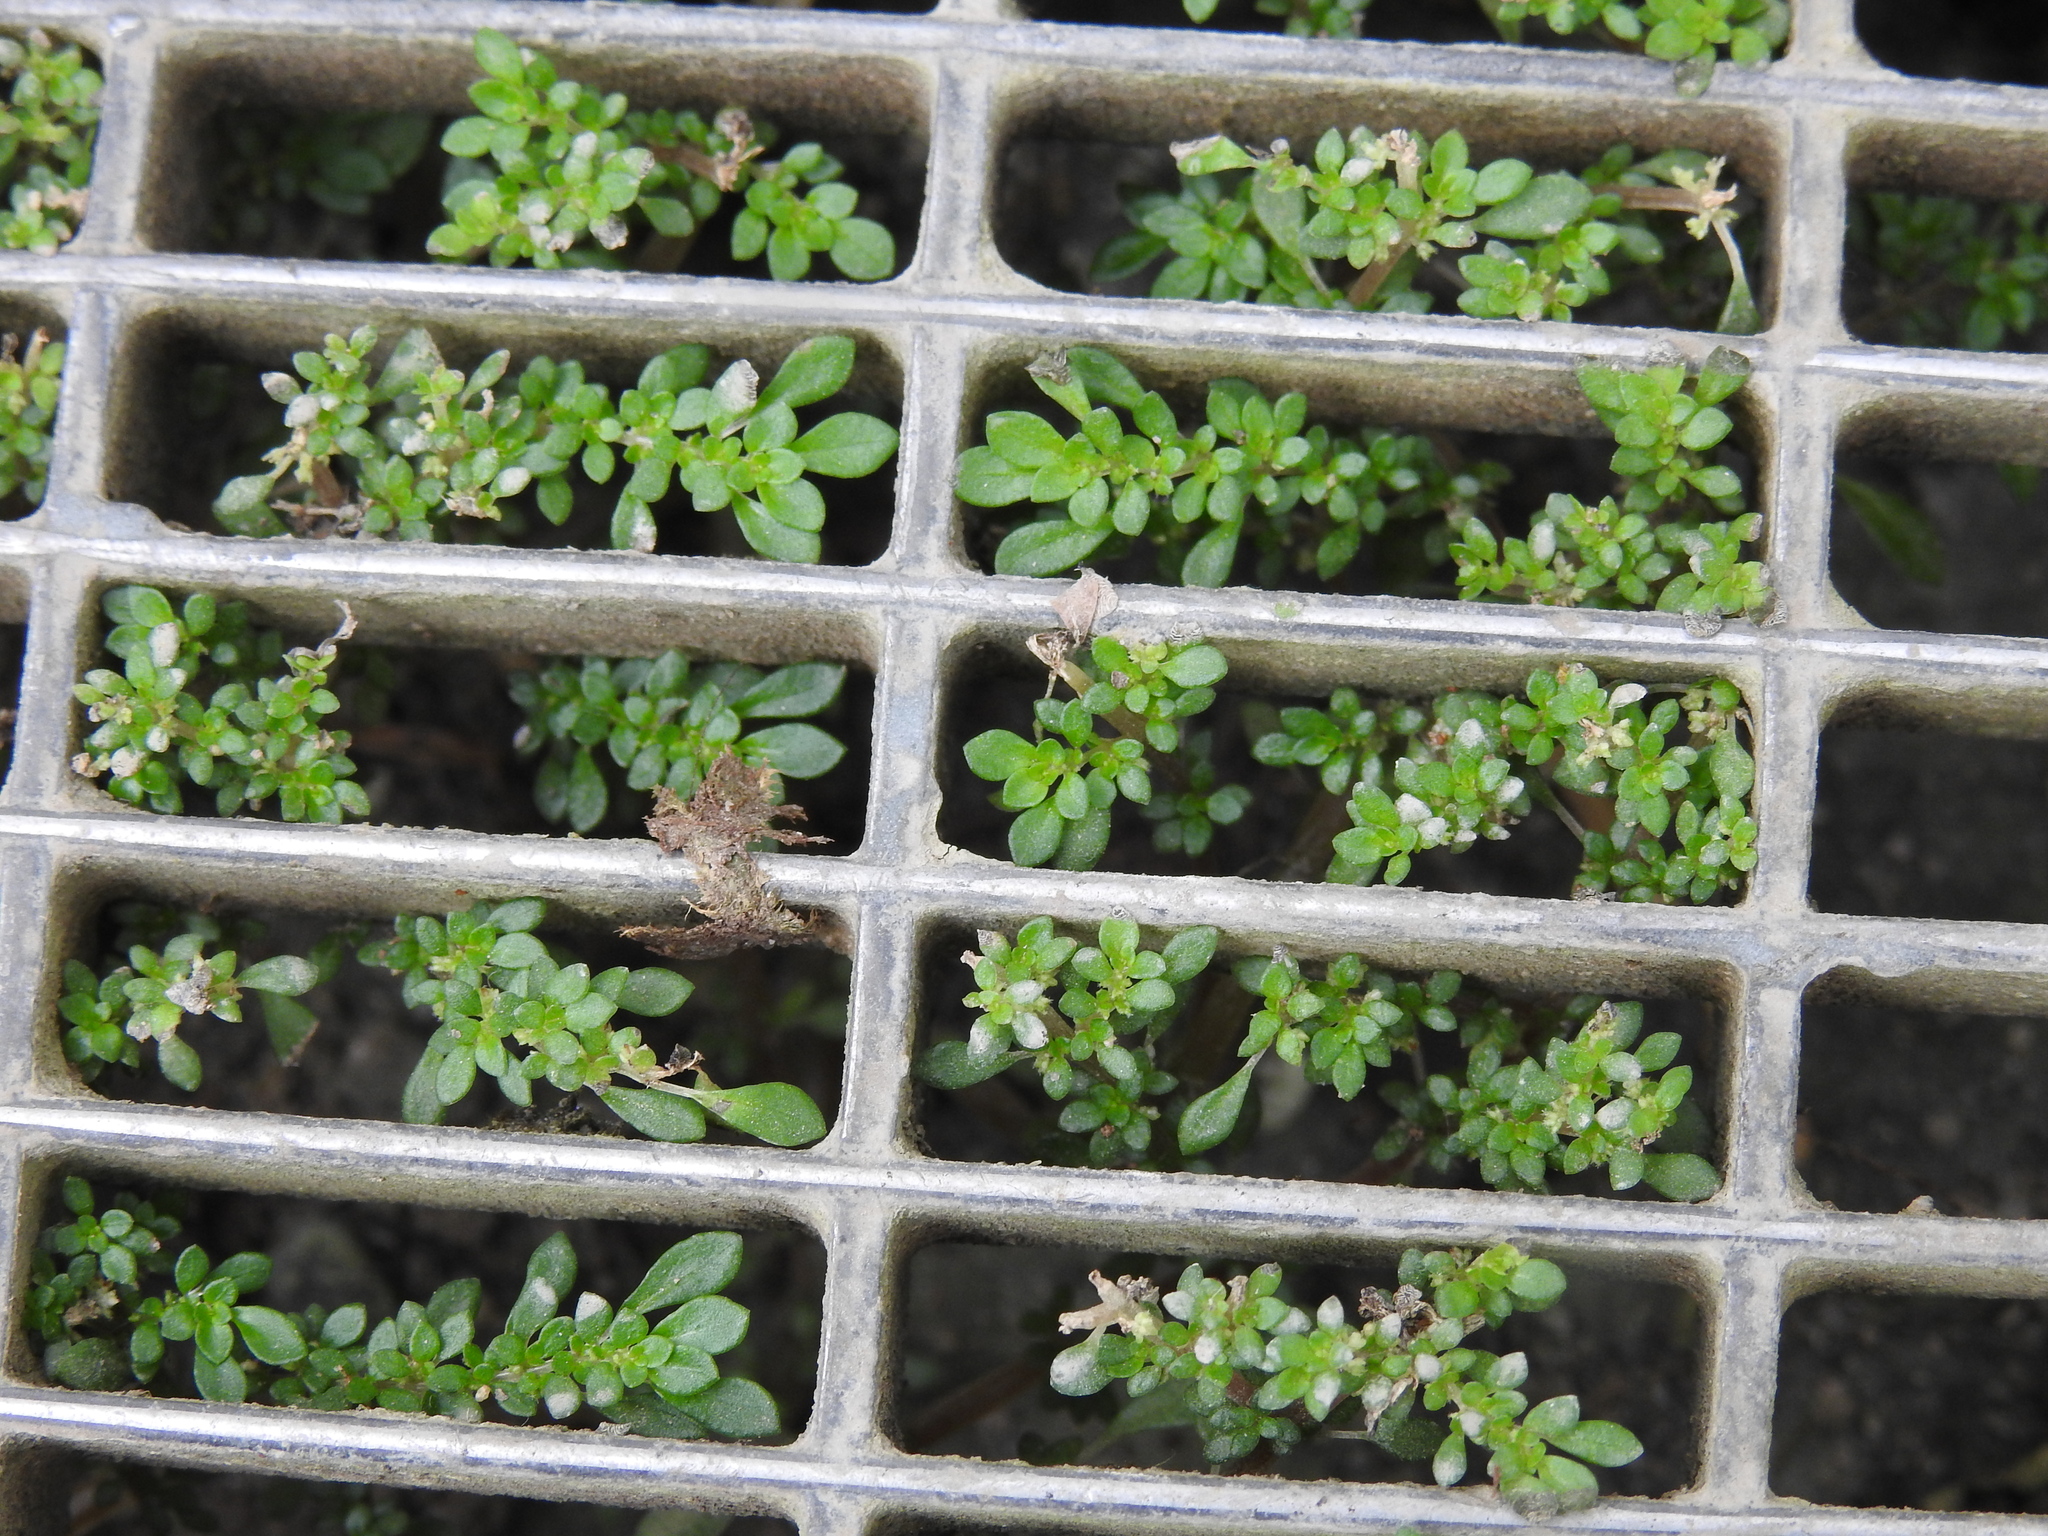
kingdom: Plantae
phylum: Tracheophyta
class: Magnoliopsida
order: Rosales
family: Urticaceae
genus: Pilea
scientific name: Pilea microphylla
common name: Artillery-plant
